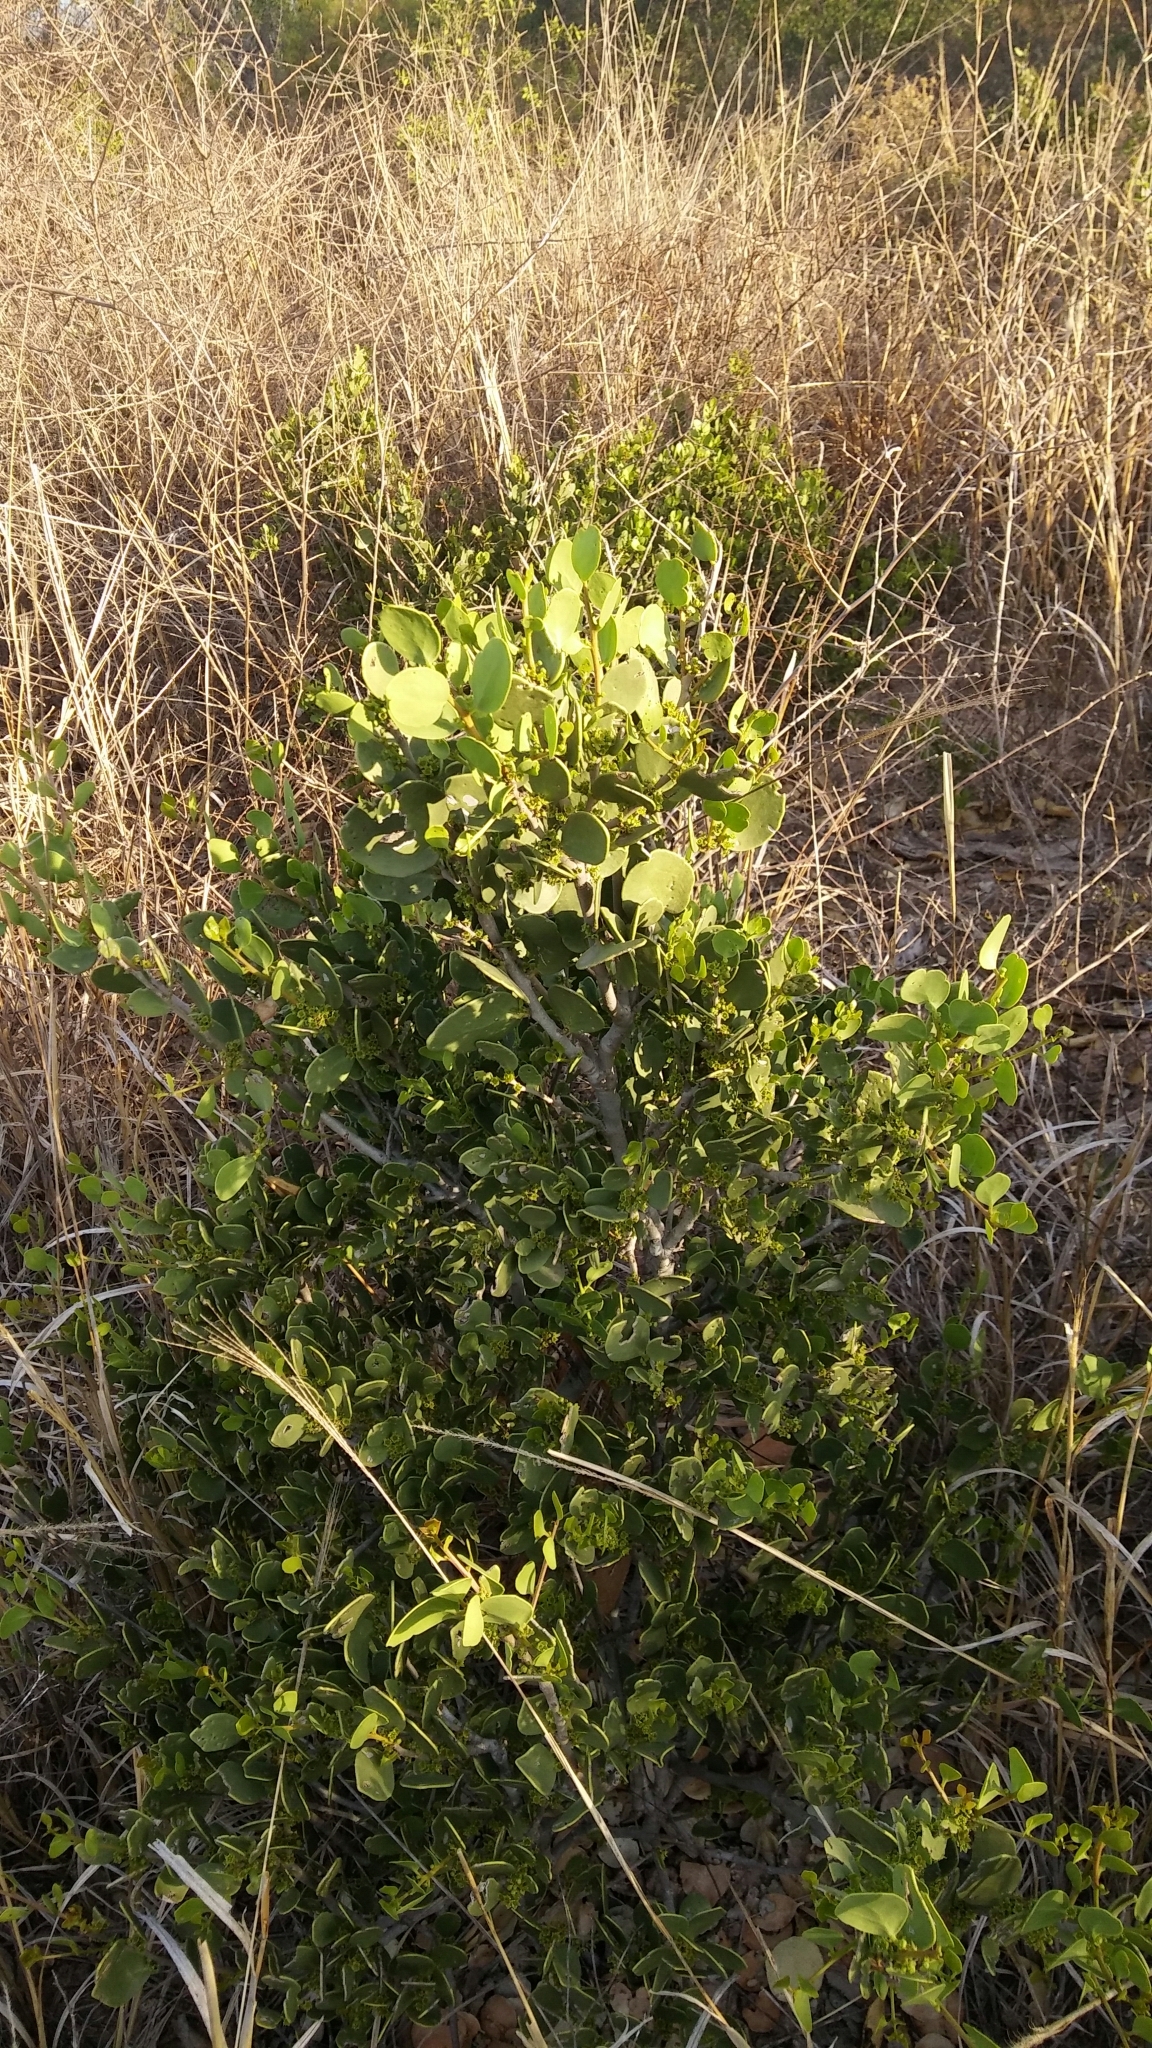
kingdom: Plantae
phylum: Tracheophyta
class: Magnoliopsida
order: Celastrales
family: Celastraceae
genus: Tricerma
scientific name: Tricerma vitis-idaeum
